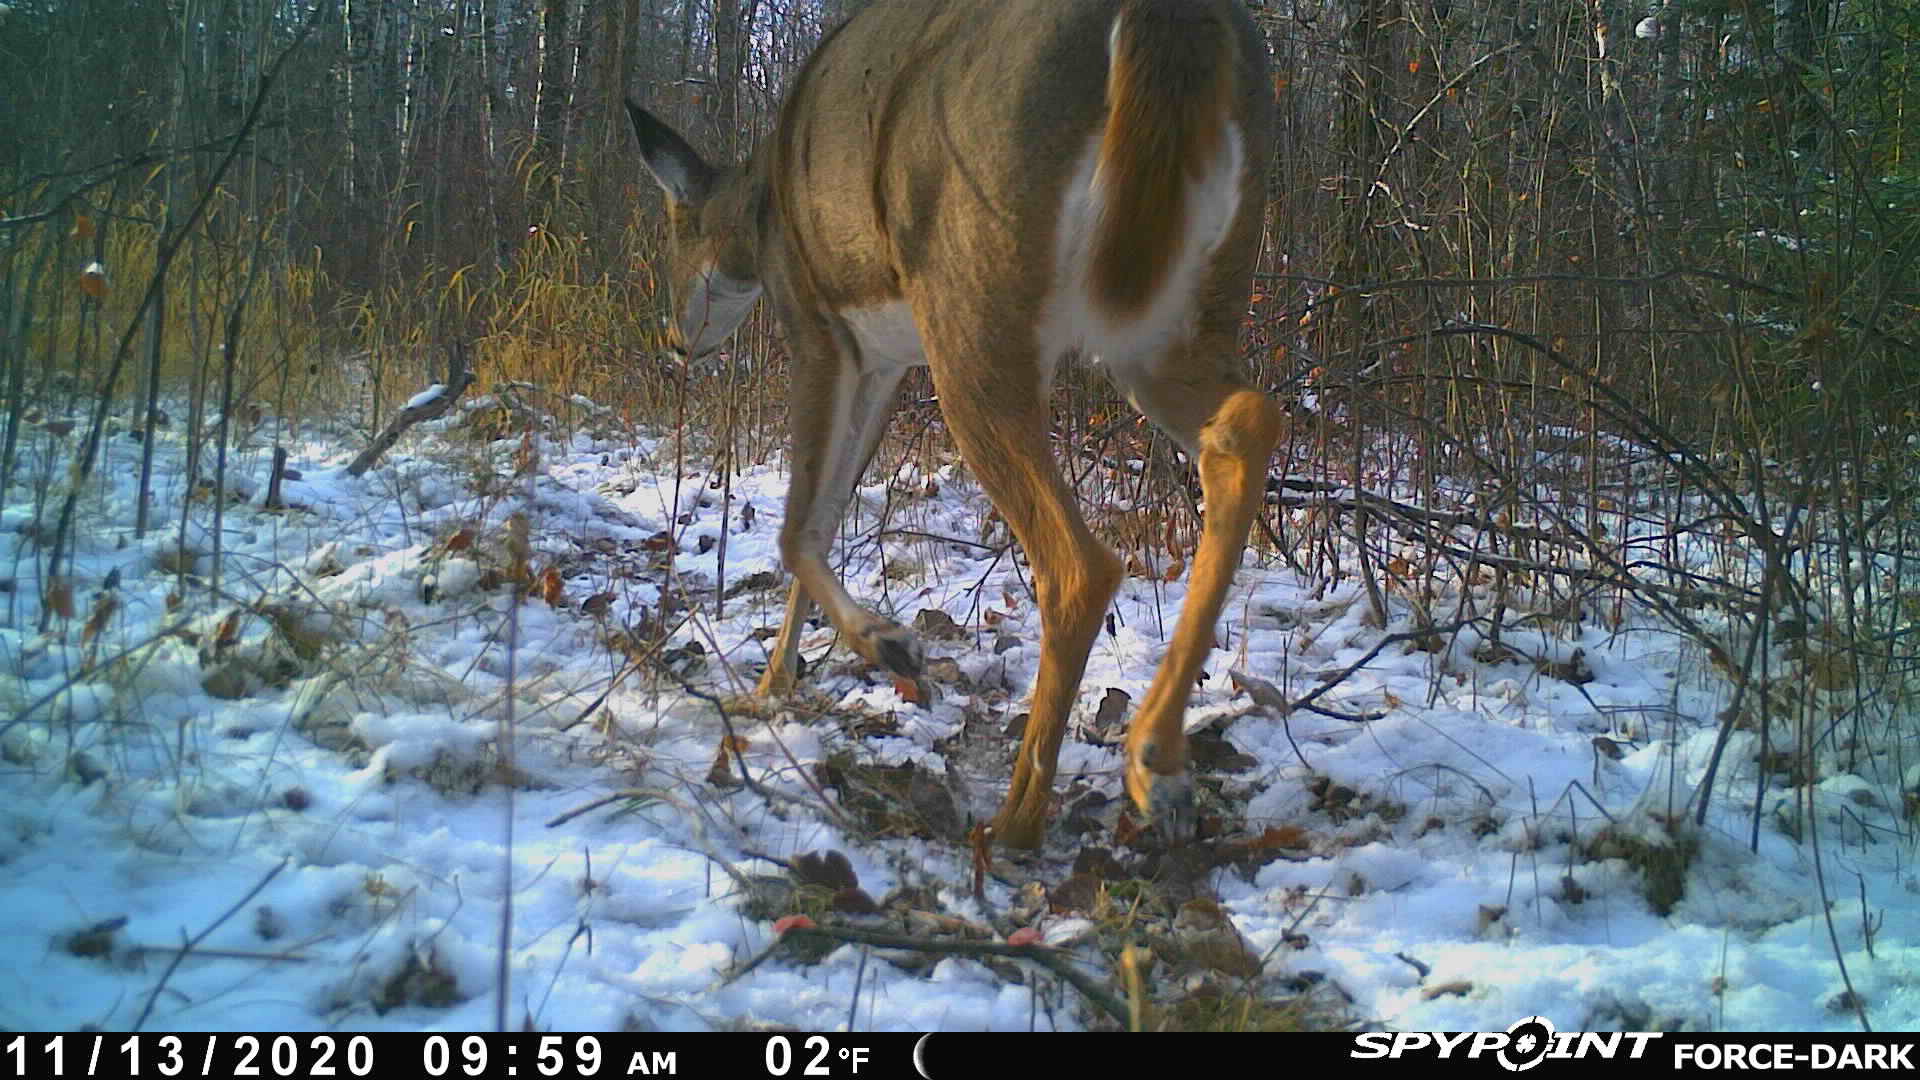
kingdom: Animalia
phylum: Chordata
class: Mammalia
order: Artiodactyla
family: Cervidae
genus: Odocoileus
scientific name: Odocoileus virginianus
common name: White-tailed deer
